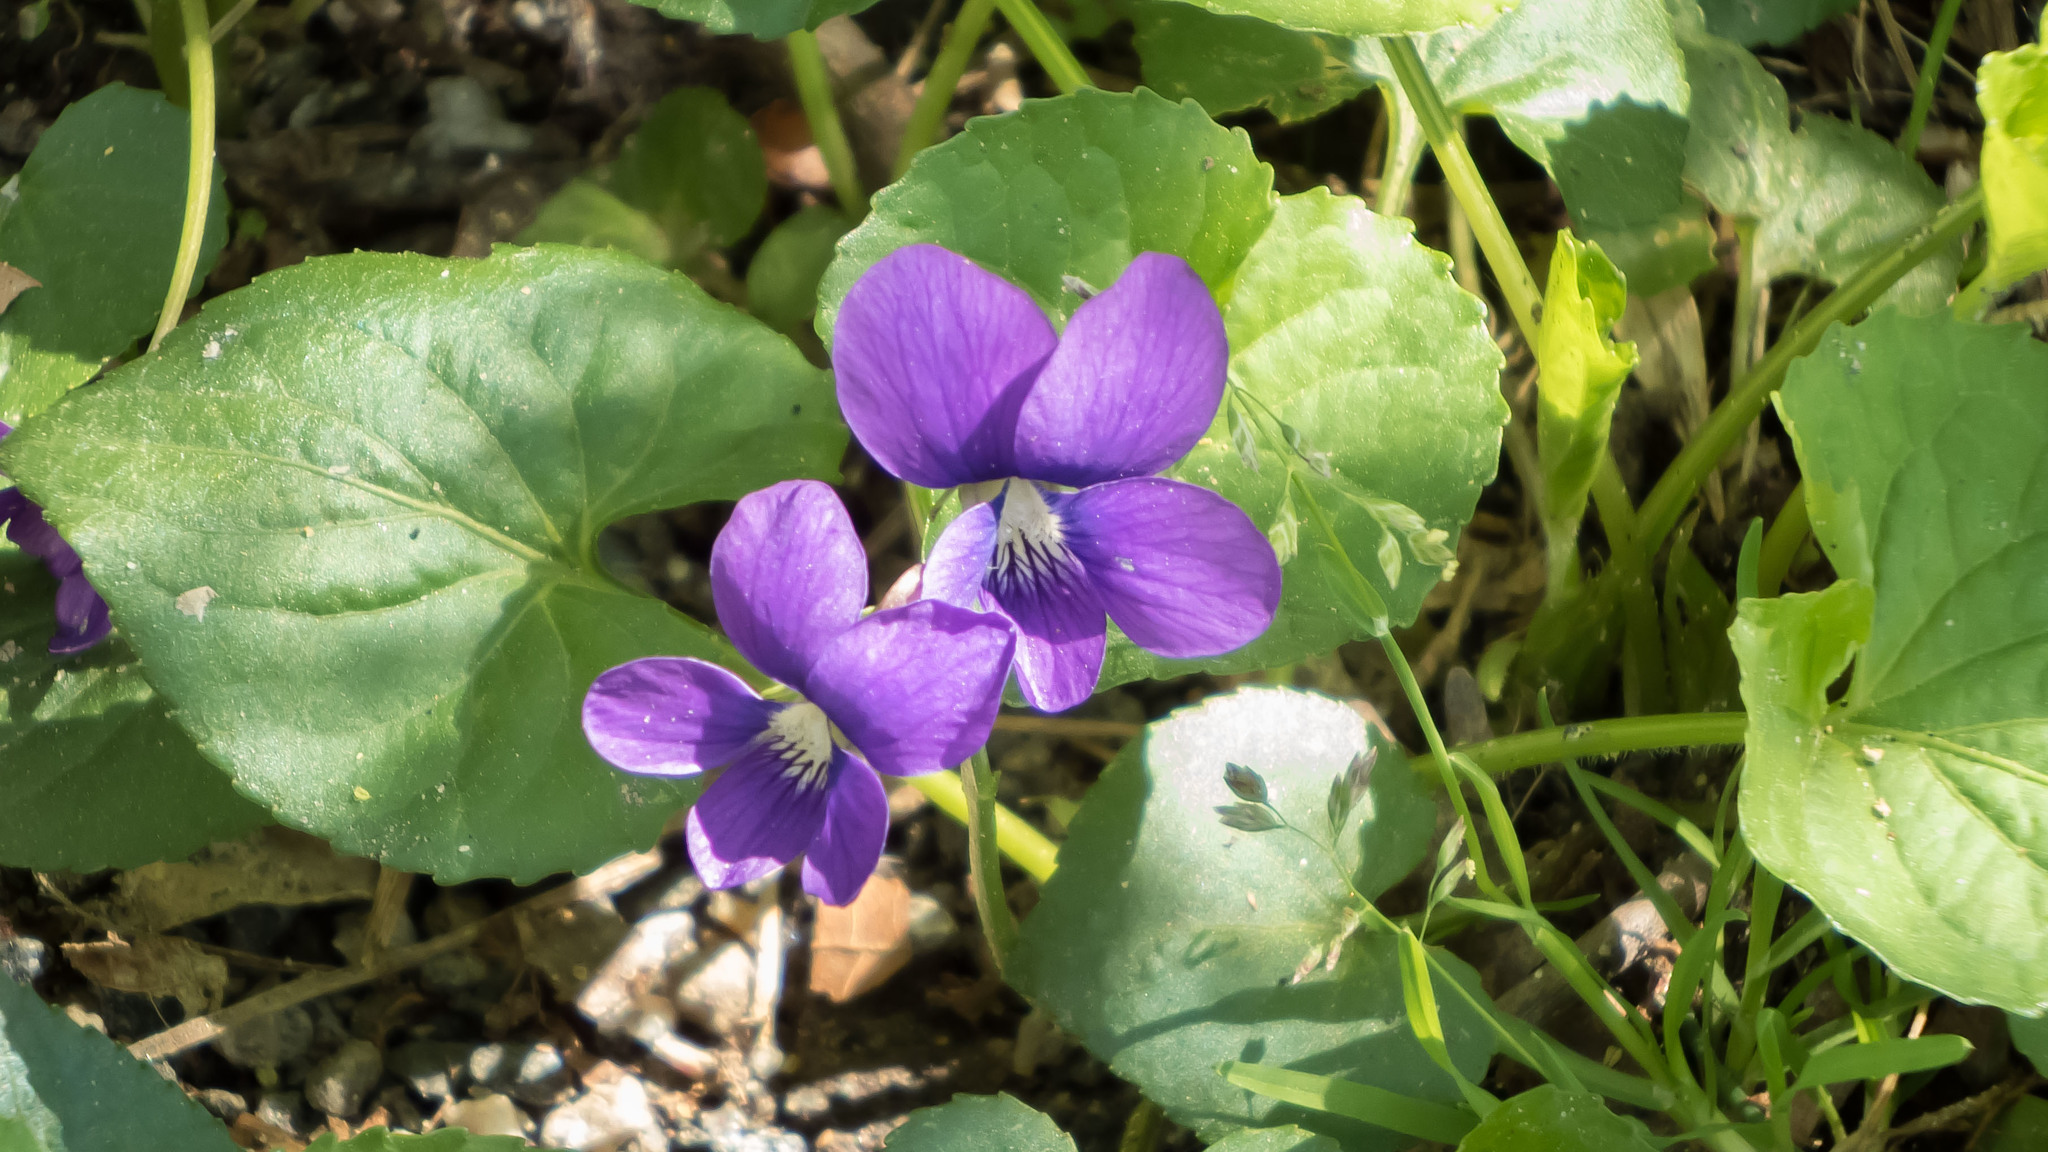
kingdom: Plantae
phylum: Tracheophyta
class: Magnoliopsida
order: Malpighiales
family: Violaceae
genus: Viola
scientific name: Viola sororia
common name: Dooryard violet
